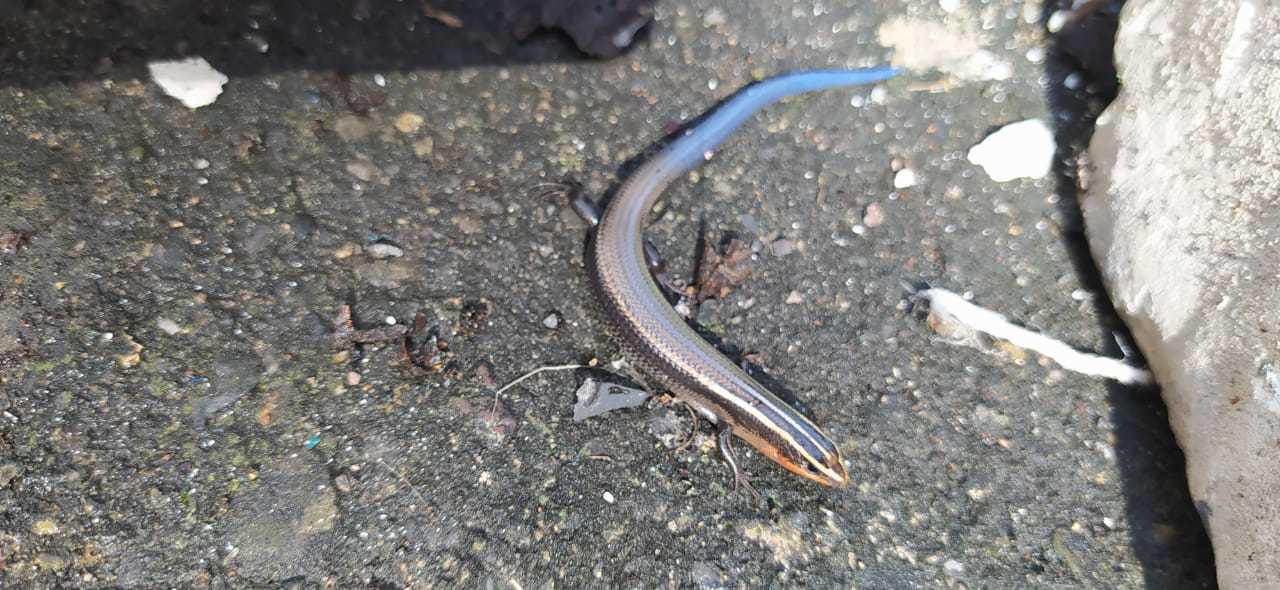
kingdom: Animalia
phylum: Chordata
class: Squamata
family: Scincidae
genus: Plestiodon
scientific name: Plestiodon lynxe
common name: Oak forest skink
